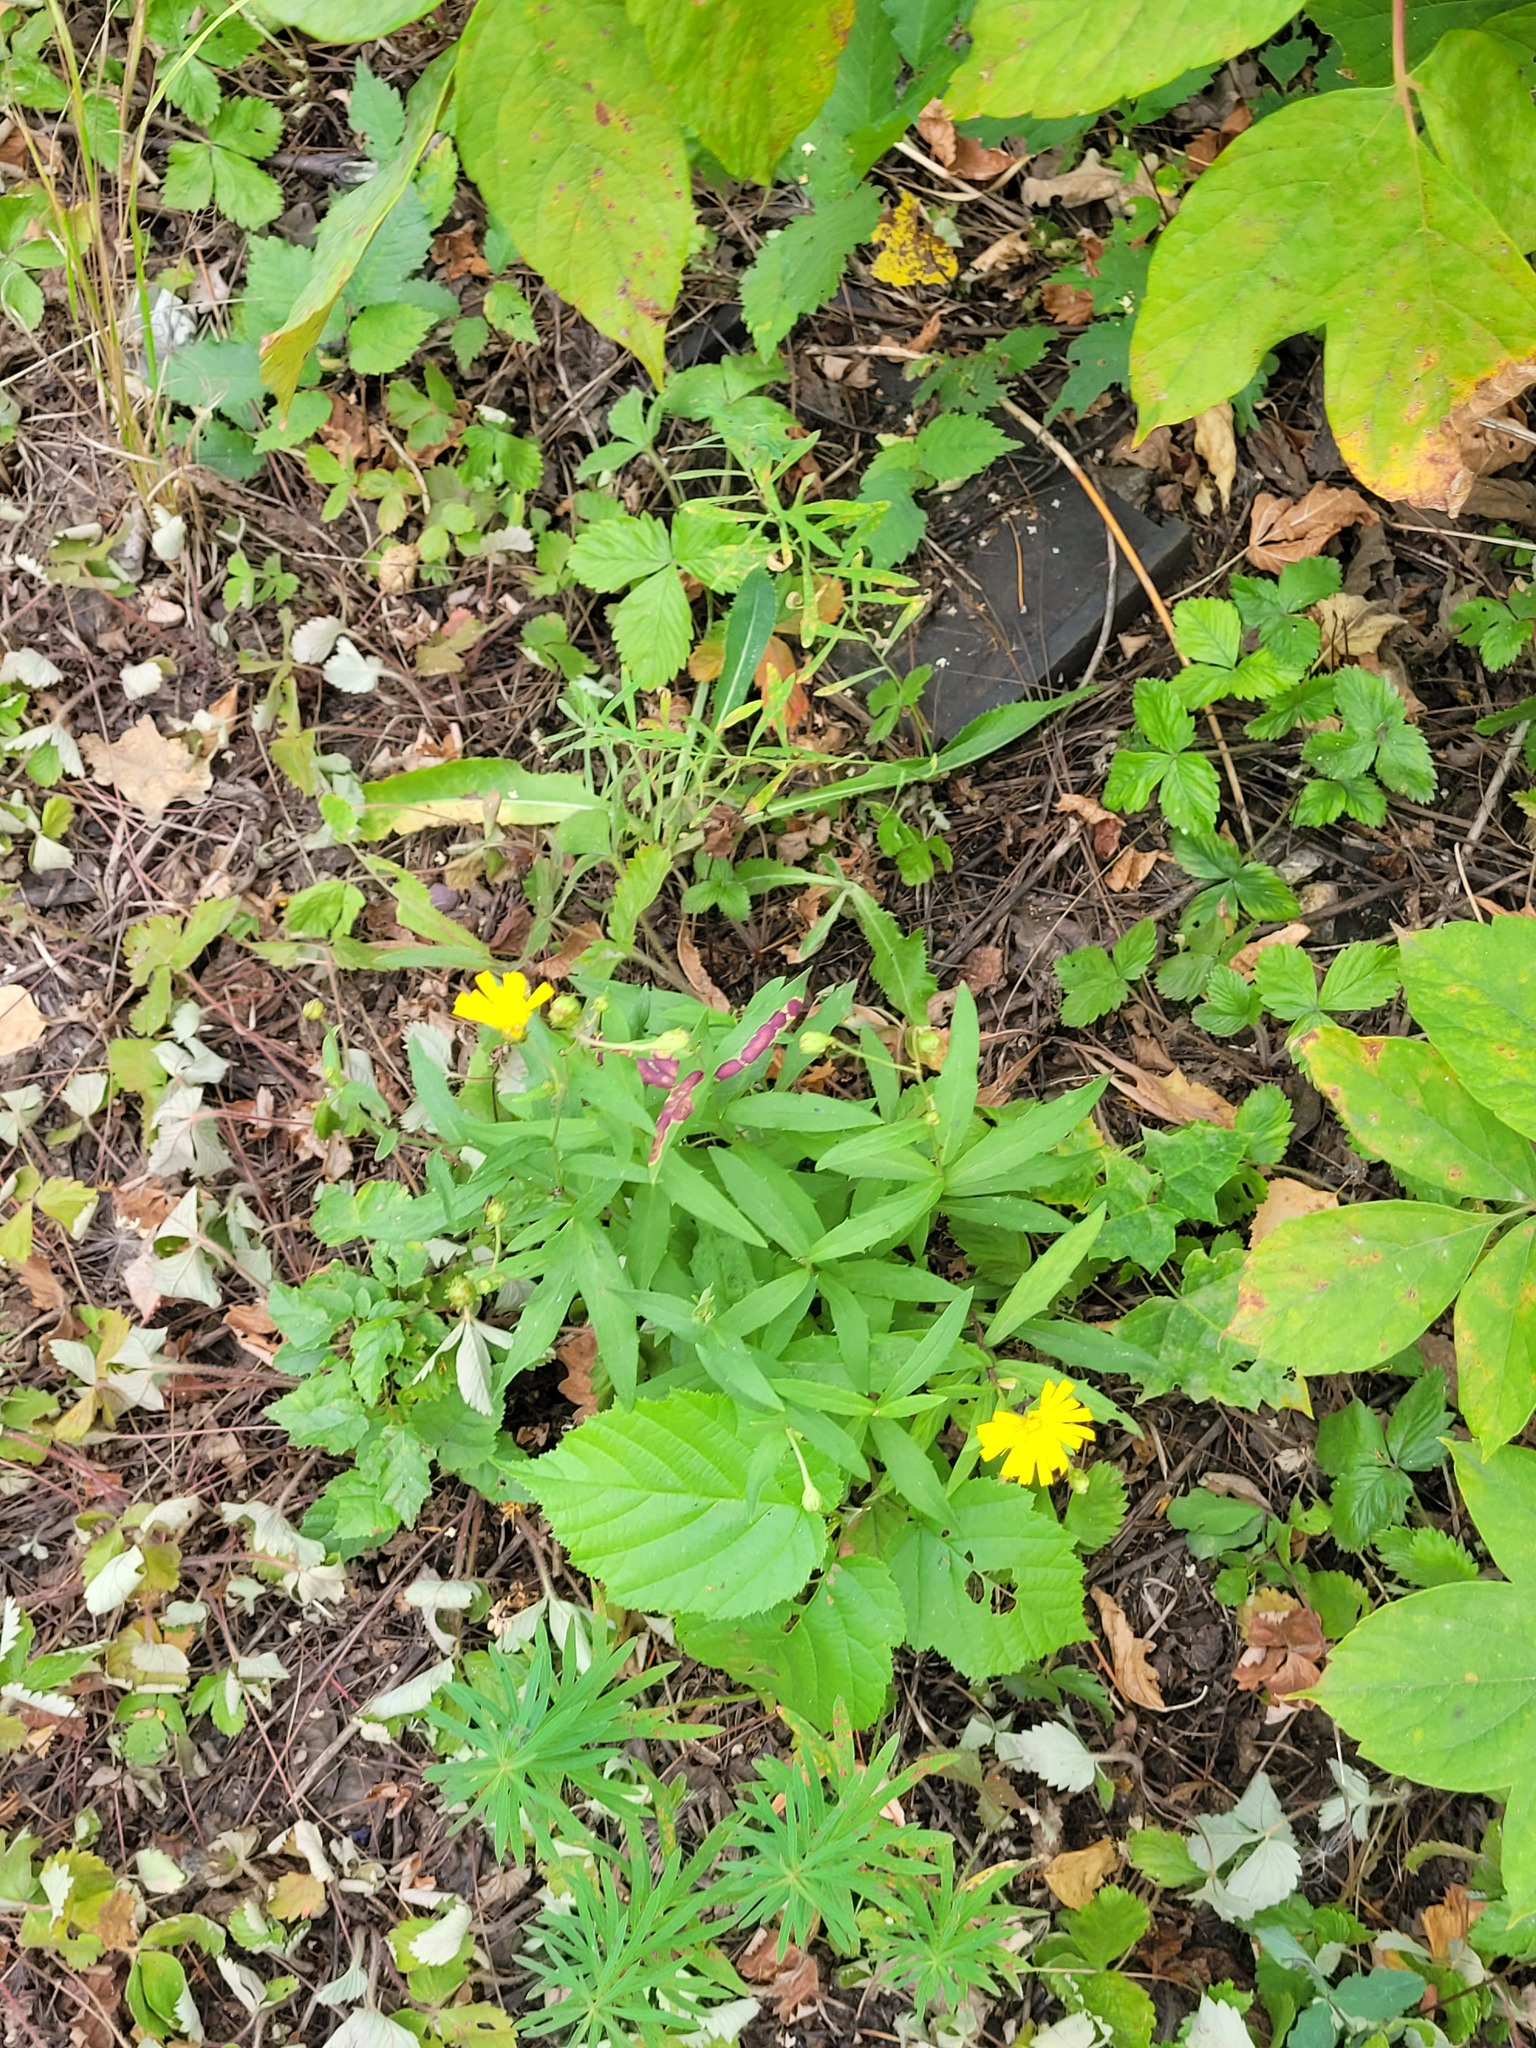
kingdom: Plantae
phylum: Tracheophyta
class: Magnoliopsida
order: Asterales
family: Asteraceae
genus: Hieracium
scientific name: Hieracium umbellatum
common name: Northern hawkweed
